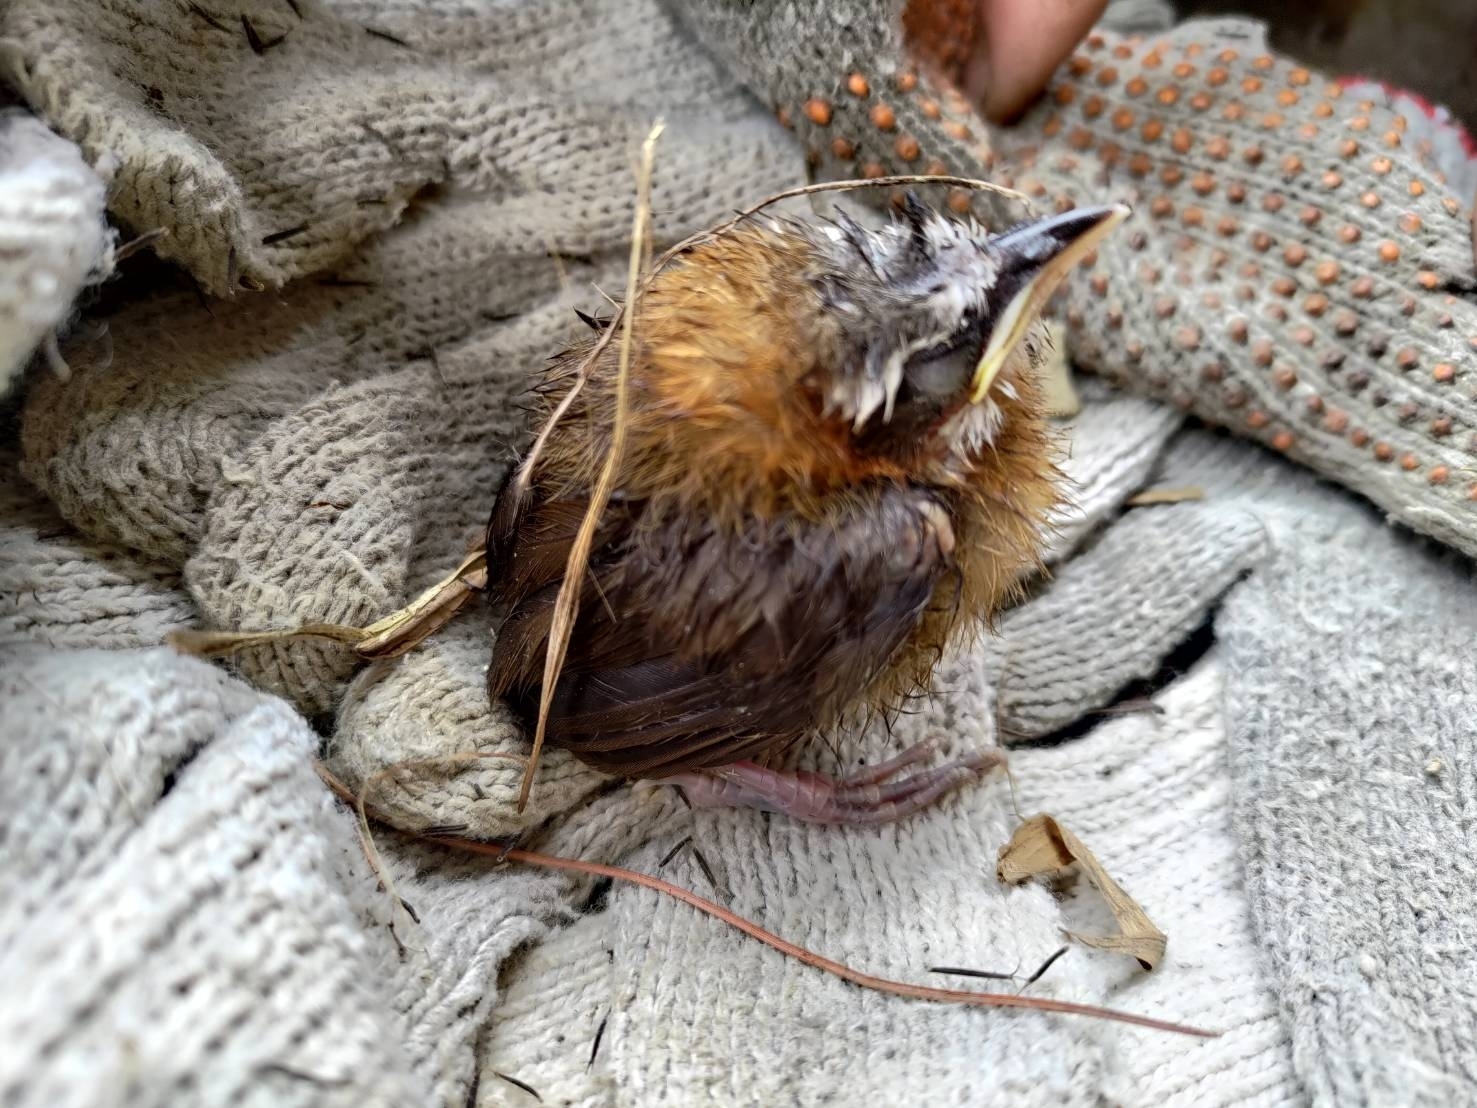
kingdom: Animalia
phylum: Chordata
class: Aves
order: Passeriformes
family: Timaliidae
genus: Pomatorhinus
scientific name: Pomatorhinus musicus
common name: Taiwan scimitar-babbler
